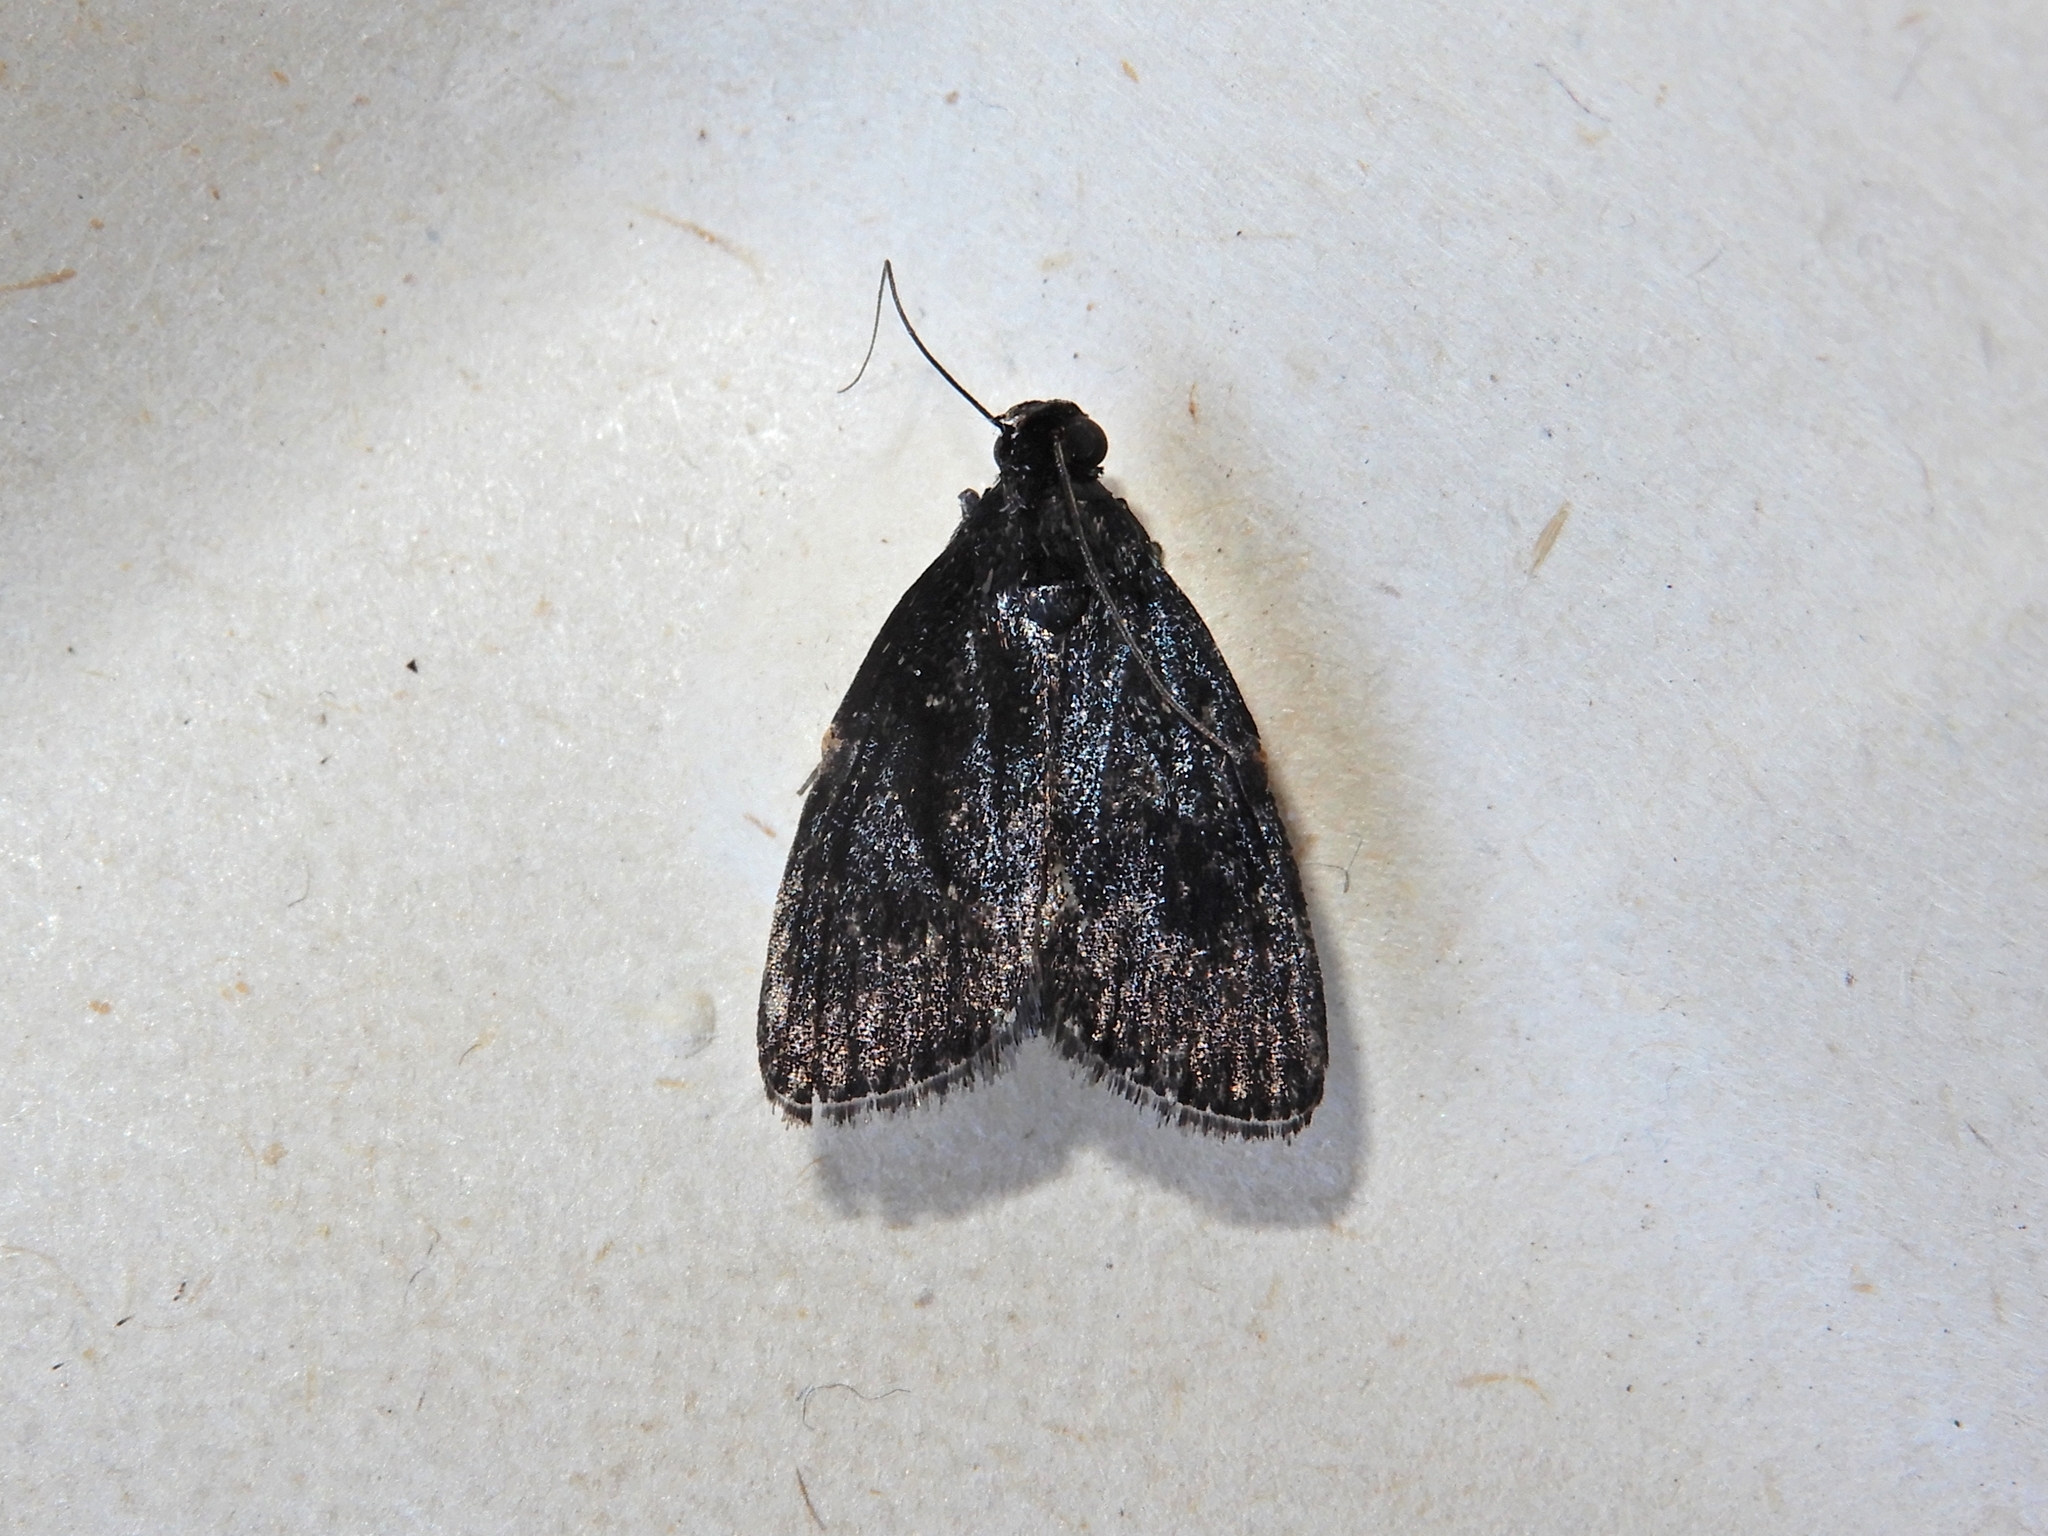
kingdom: Animalia
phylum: Arthropoda
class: Insecta
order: Lepidoptera
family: Pyralidae
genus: Stericta
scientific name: Stericta carbonalis
